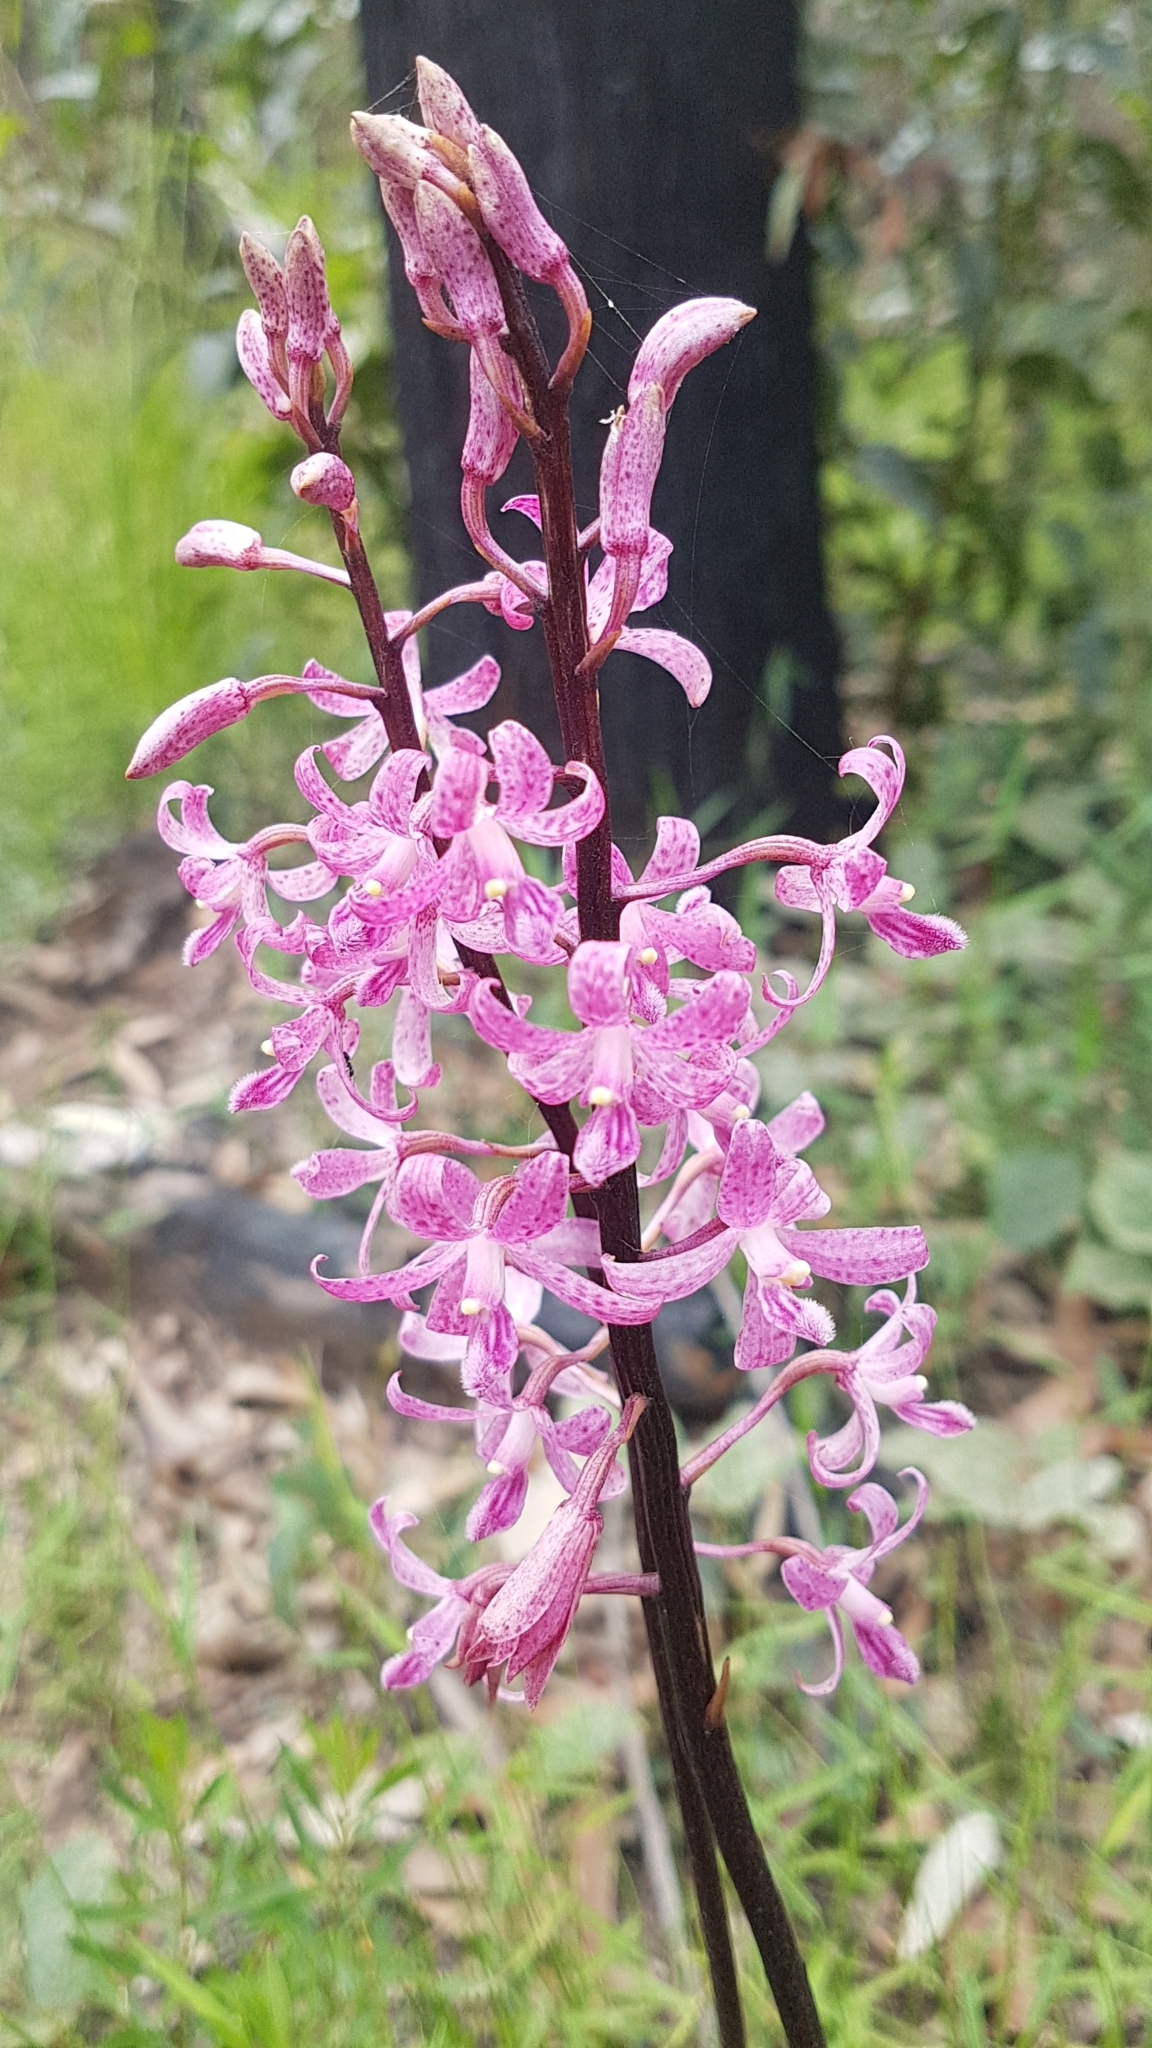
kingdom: Plantae
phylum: Tracheophyta
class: Liliopsida
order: Asparagales
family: Orchidaceae
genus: Dipodium
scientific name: Dipodium roseum
